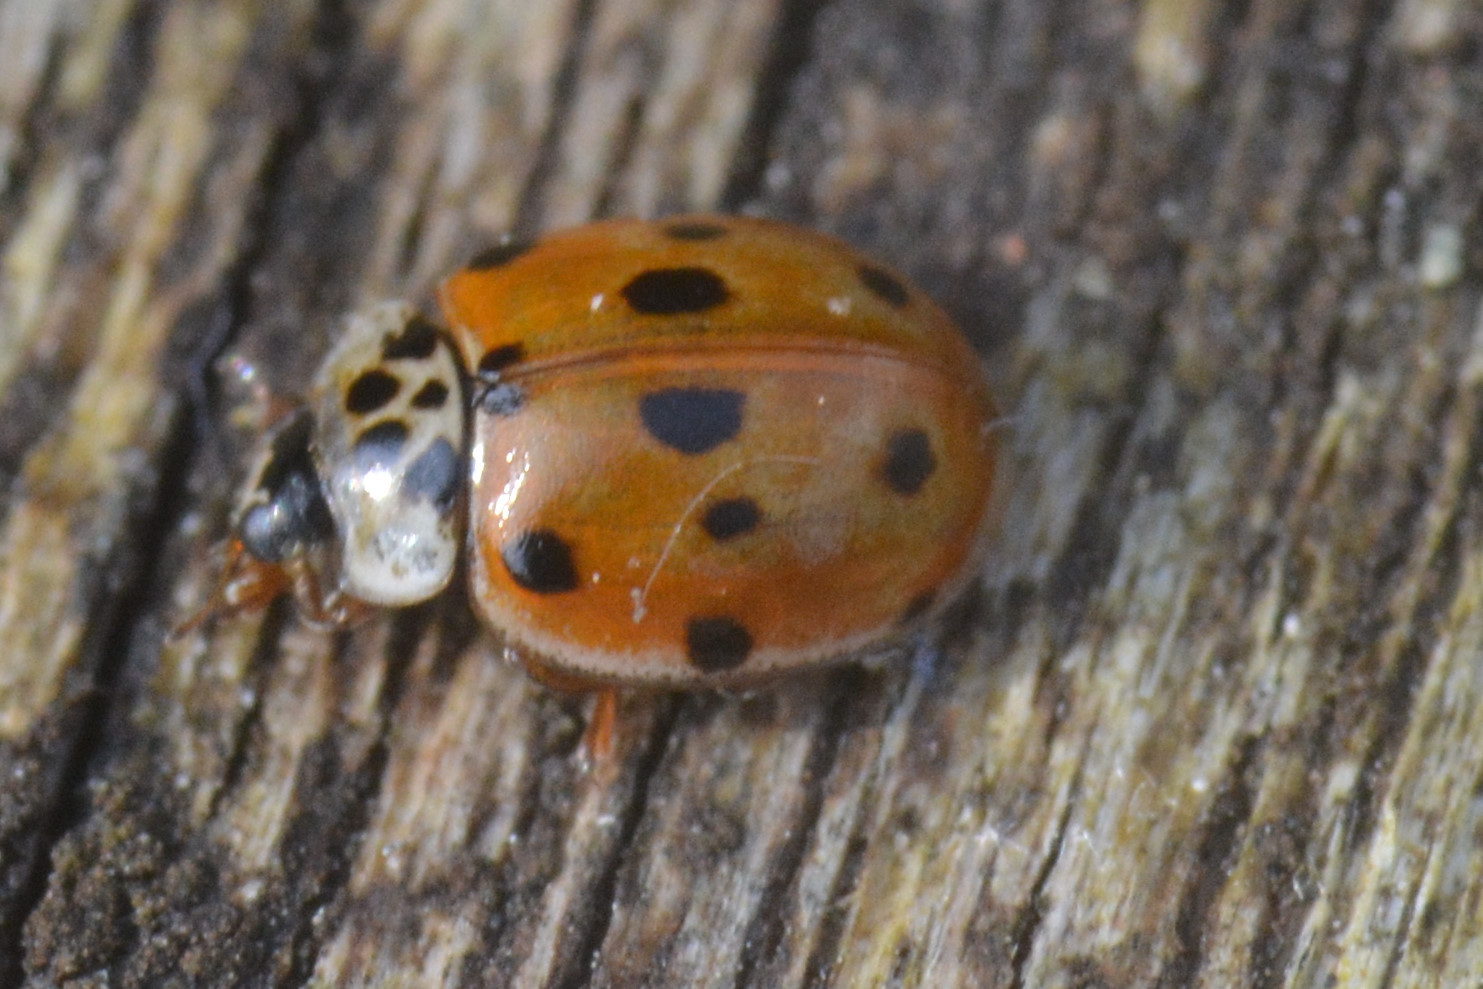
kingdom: Animalia
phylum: Arthropoda
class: Insecta
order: Coleoptera
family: Coccinellidae
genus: Adalia
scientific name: Adalia decempunctata
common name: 10-spot ladybird
